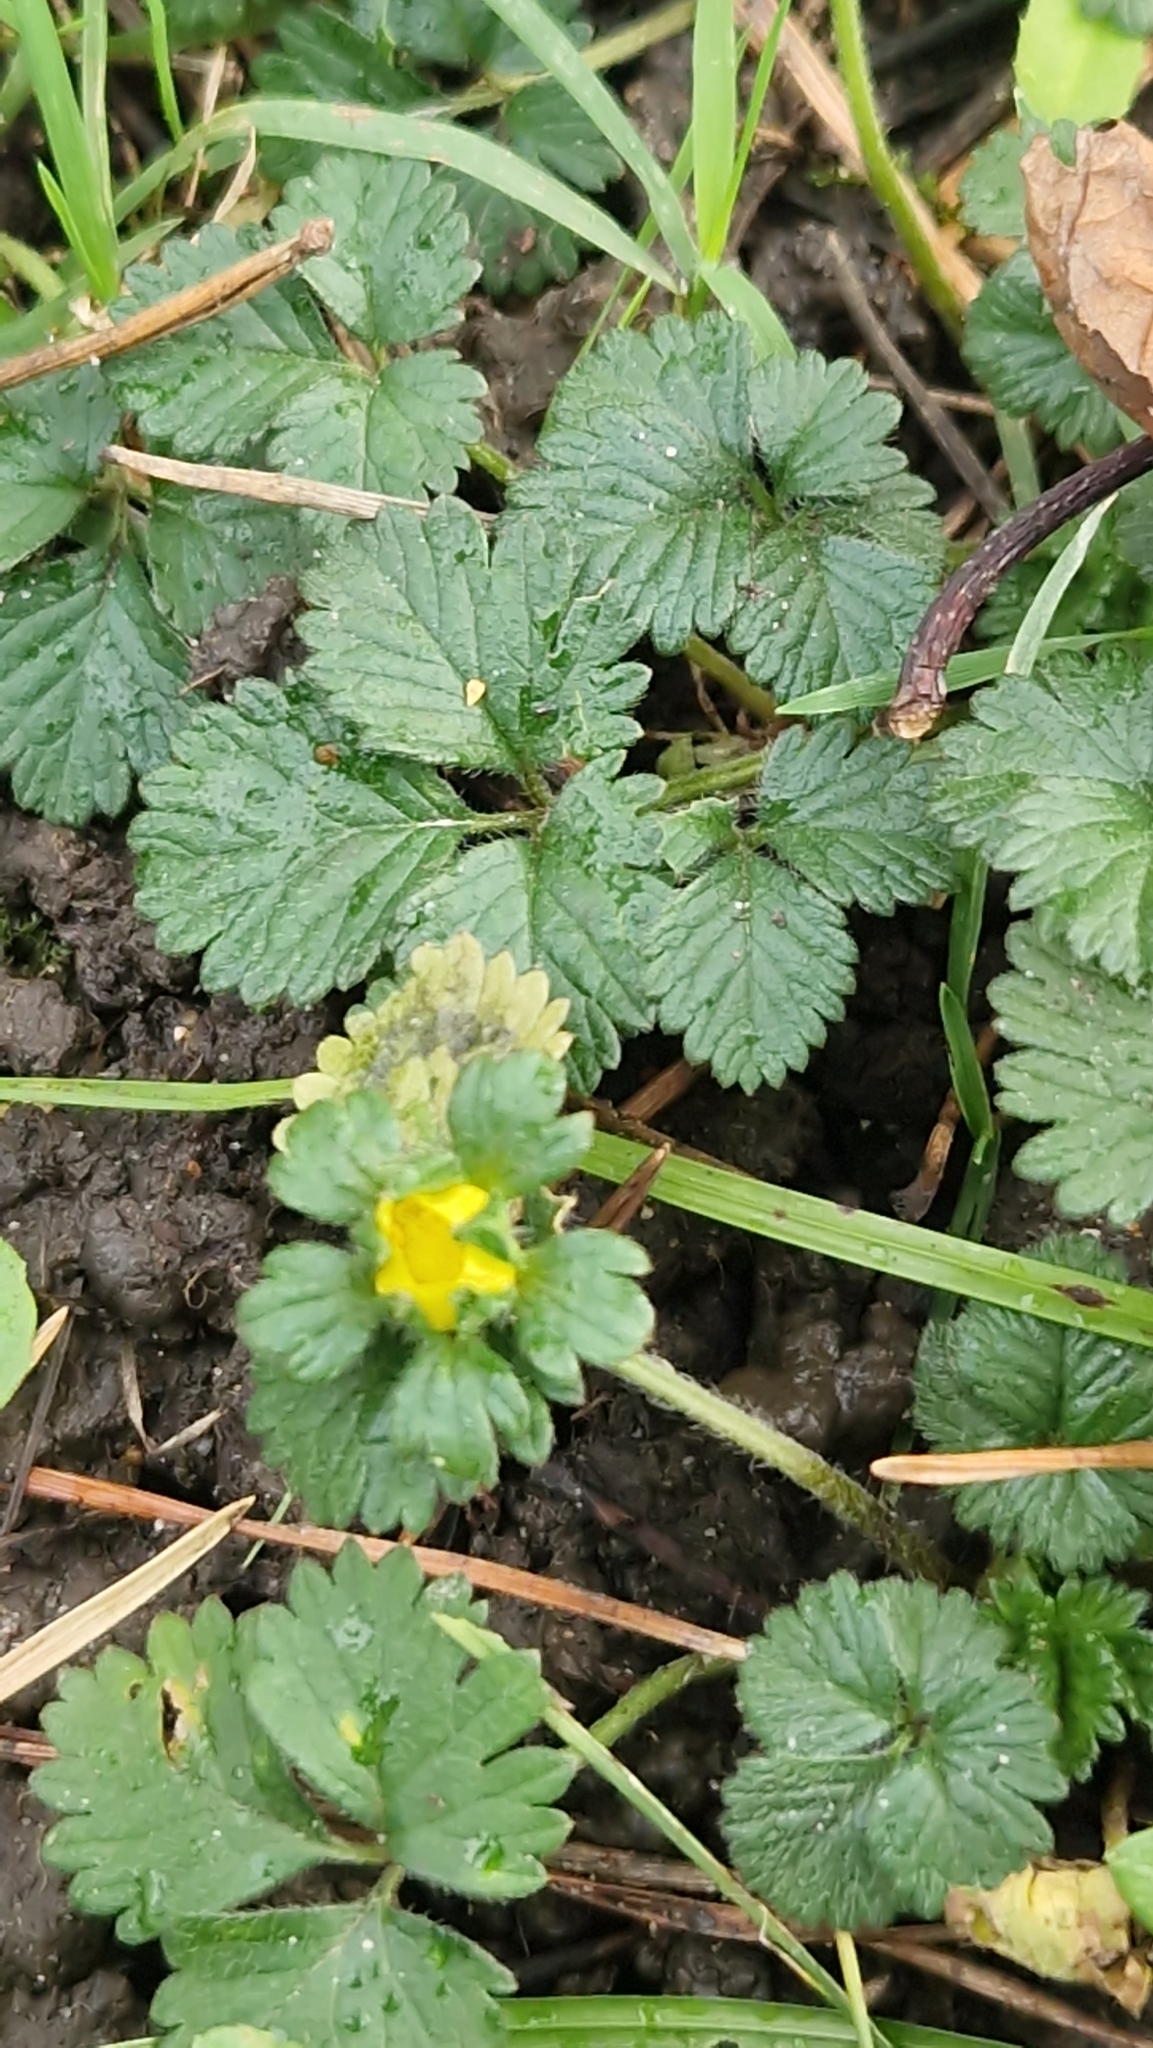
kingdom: Plantae
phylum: Tracheophyta
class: Magnoliopsida
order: Rosales
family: Rosaceae
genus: Potentilla
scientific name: Potentilla indica
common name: Yellow-flowered strawberry
